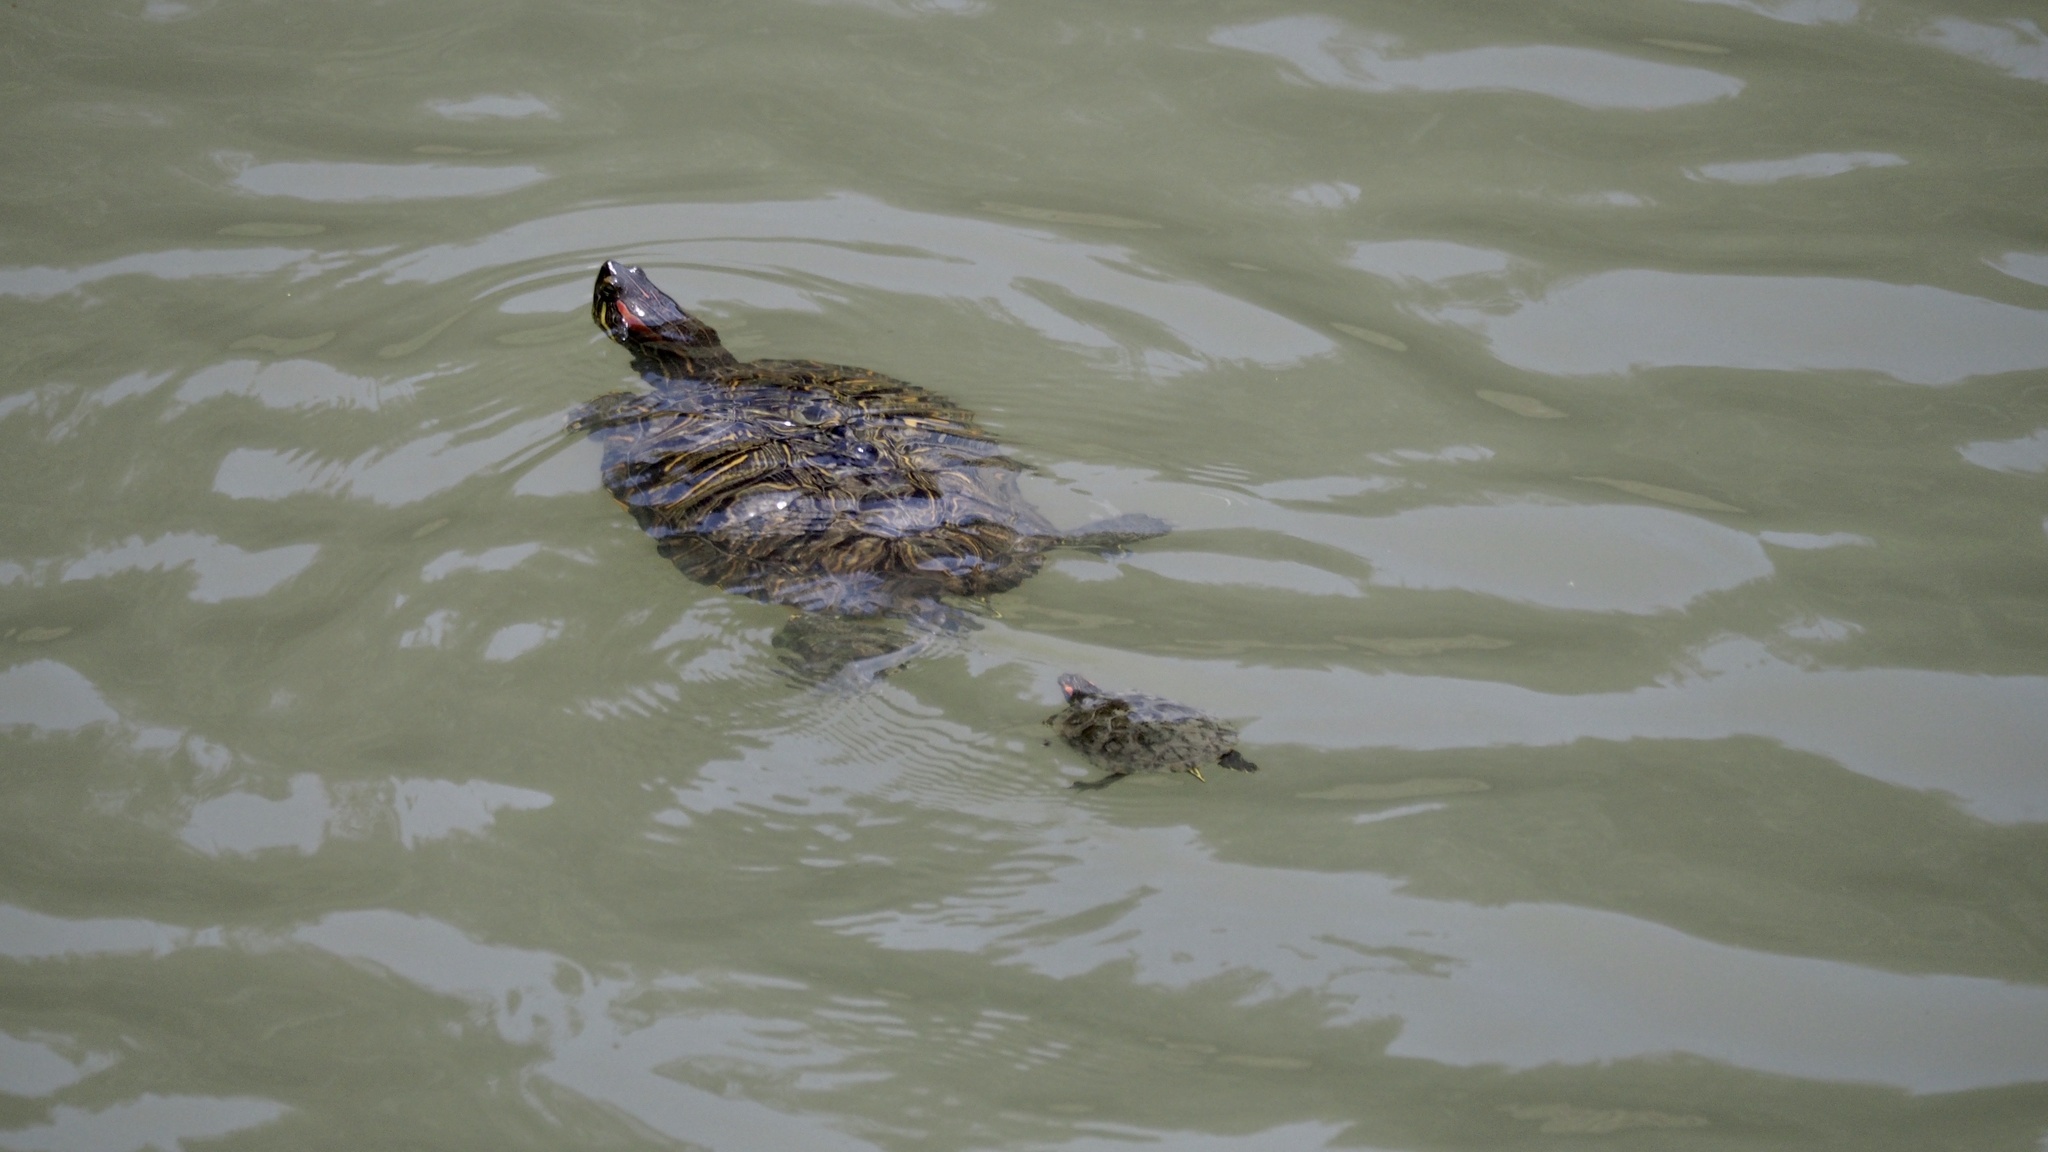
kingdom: Animalia
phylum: Chordata
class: Testudines
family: Emydidae
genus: Trachemys
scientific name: Trachemys scripta
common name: Slider
